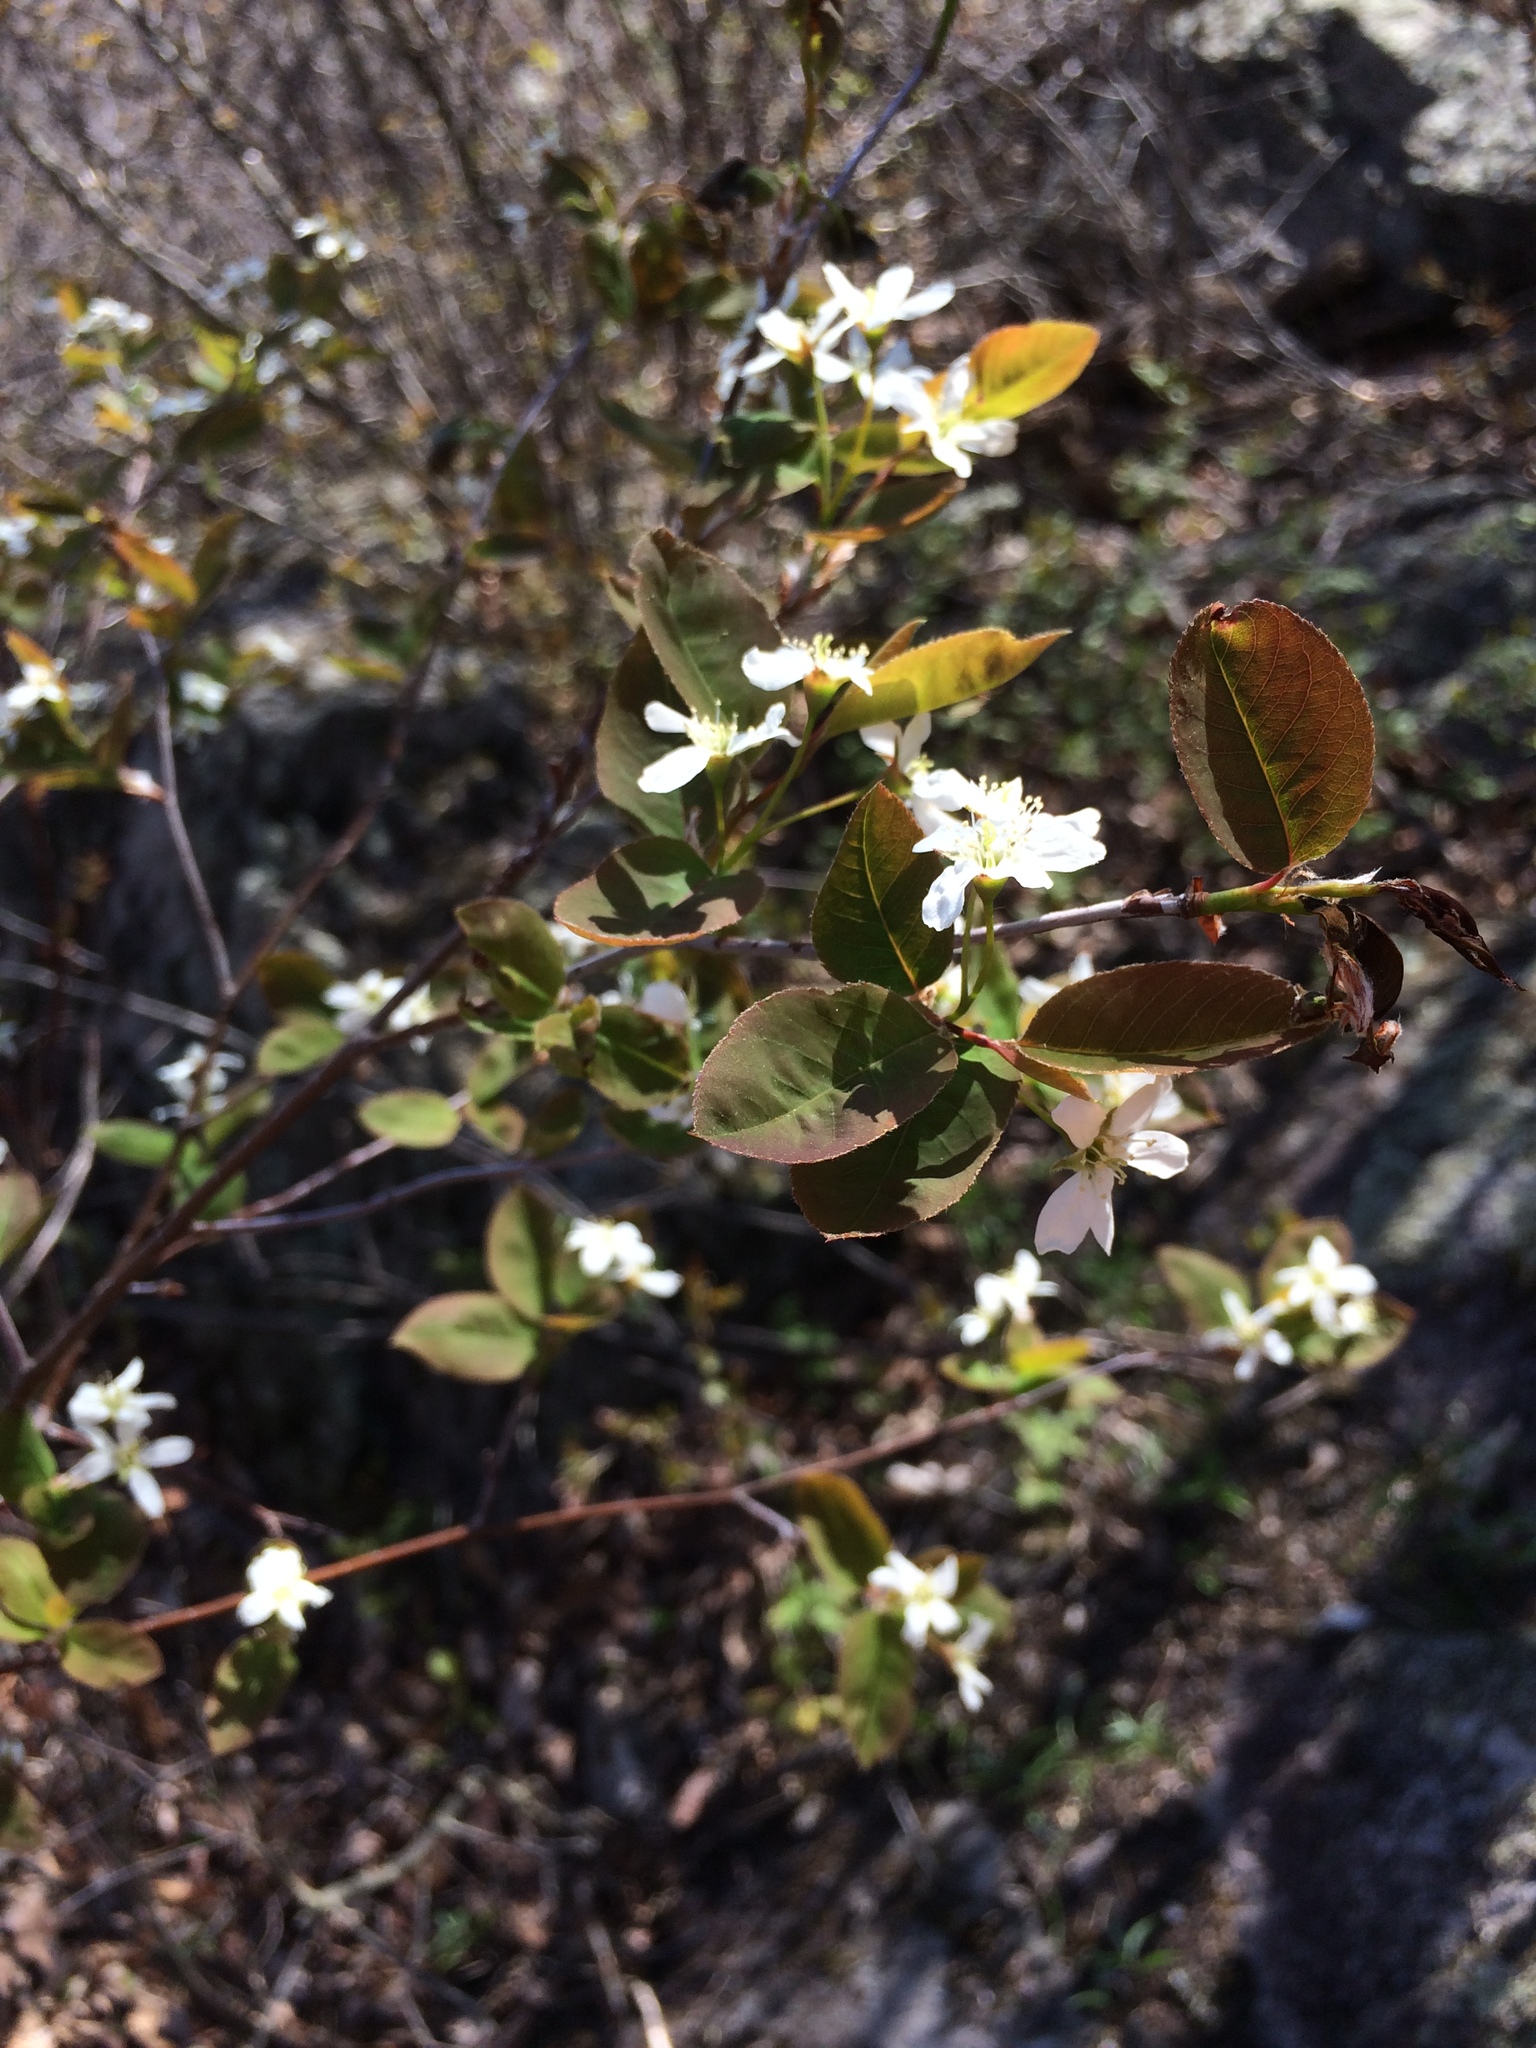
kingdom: Plantae
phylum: Tracheophyta
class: Magnoliopsida
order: Rosales
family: Rosaceae
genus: Amelanchier
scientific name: Amelanchier bartramiana
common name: Mountain serviceberry
